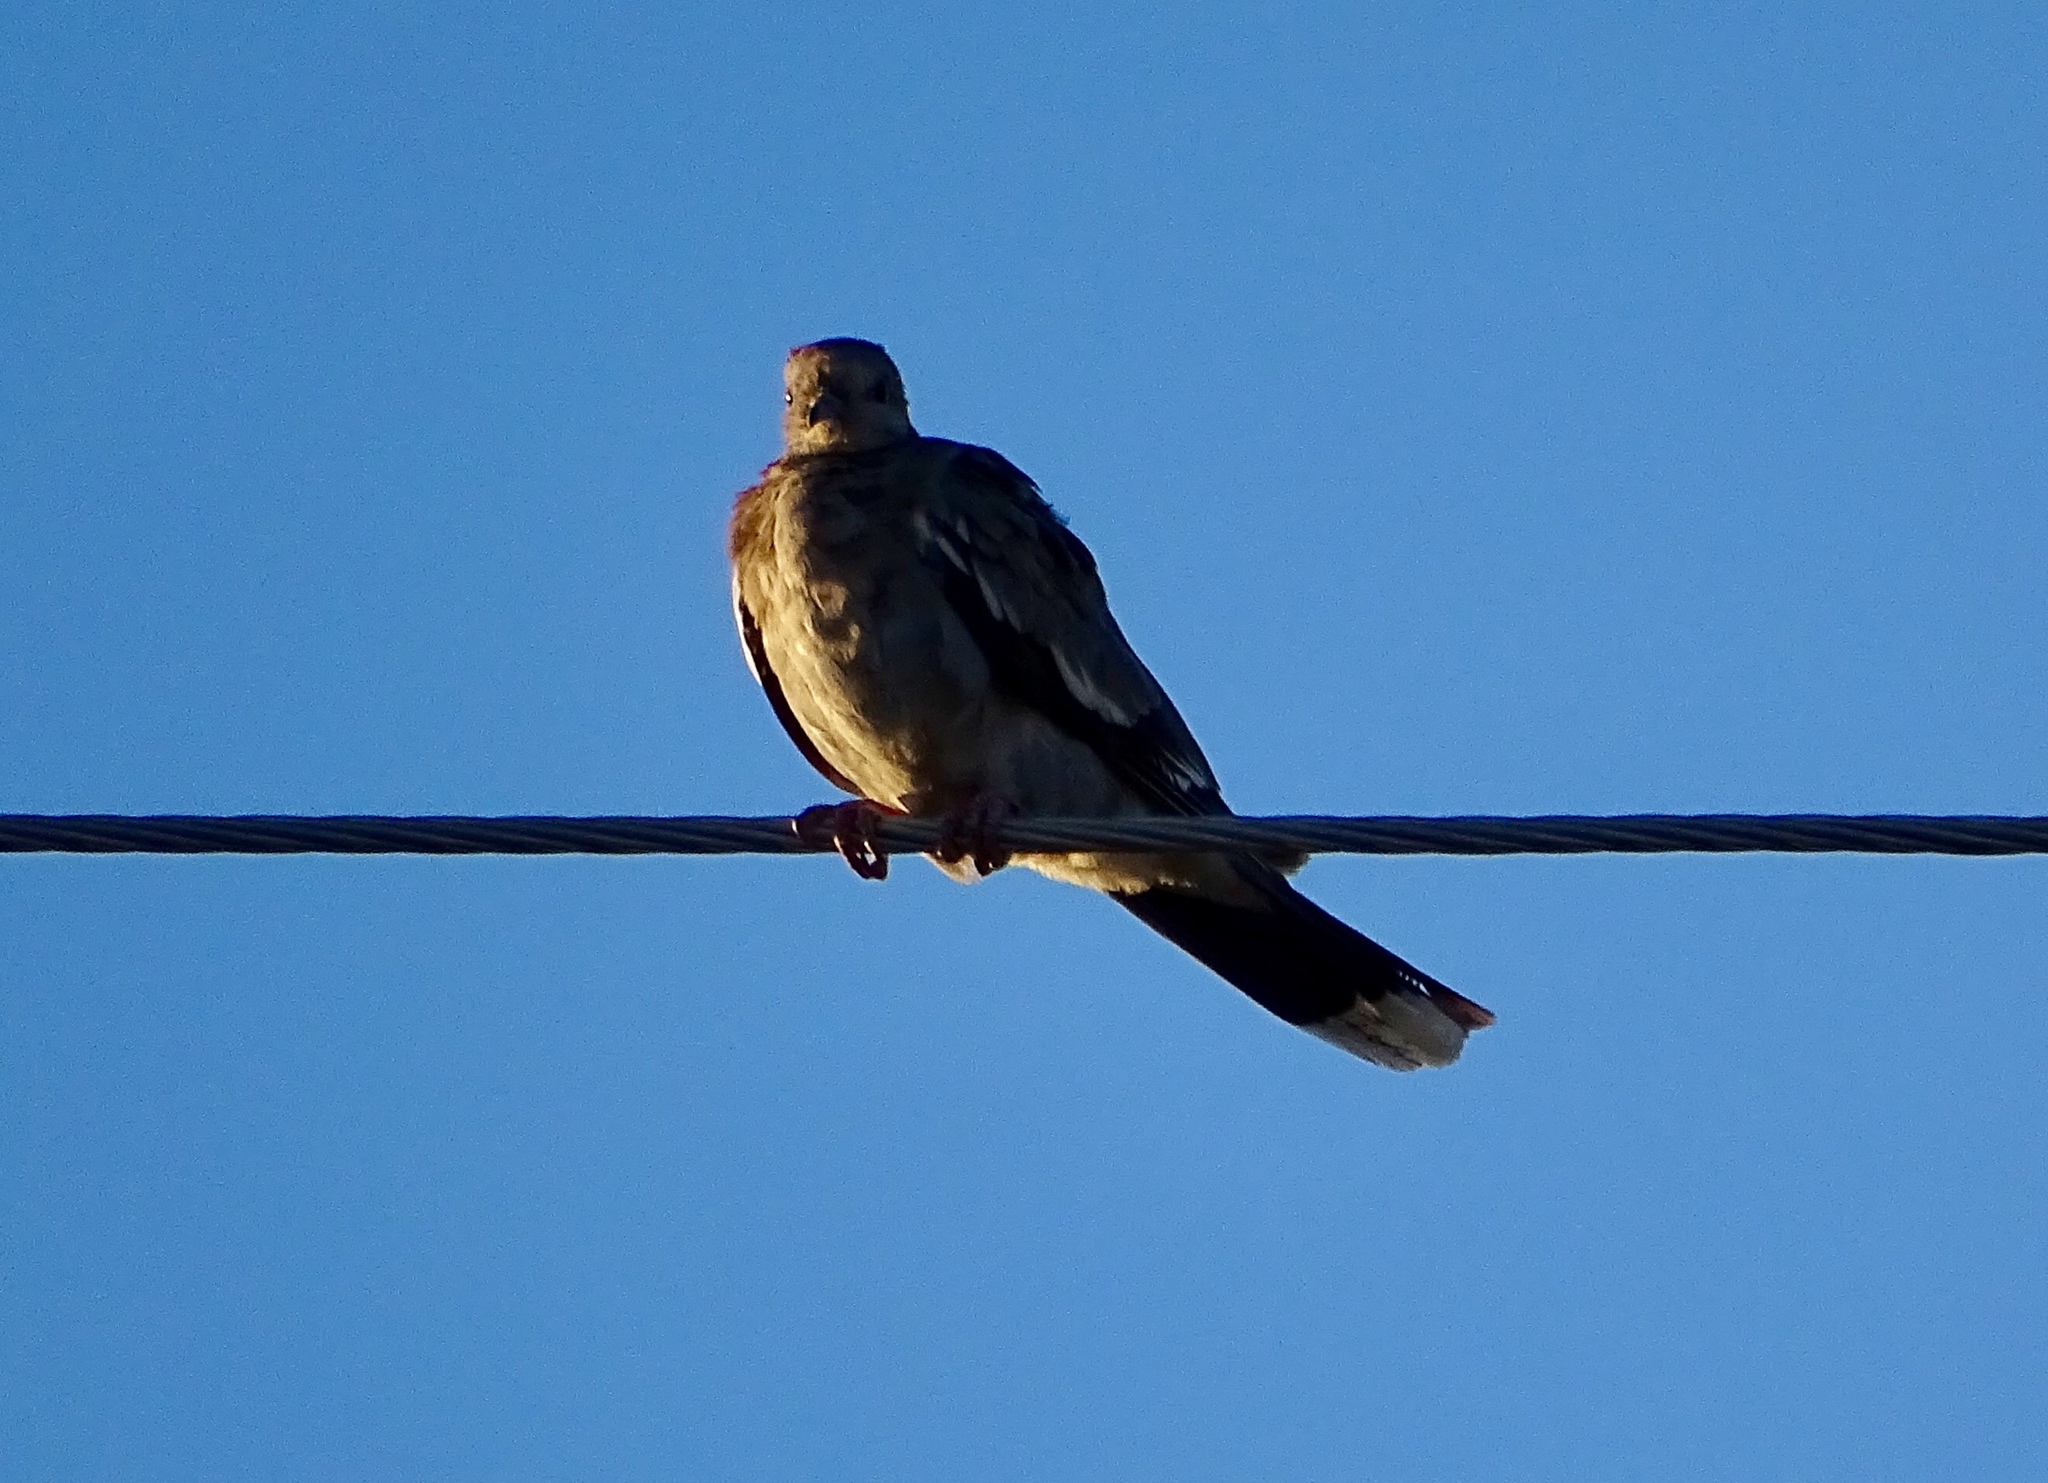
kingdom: Animalia
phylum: Chordata
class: Aves
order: Columbiformes
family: Columbidae
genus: Zenaida
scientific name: Zenaida asiatica
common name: White-winged dove
